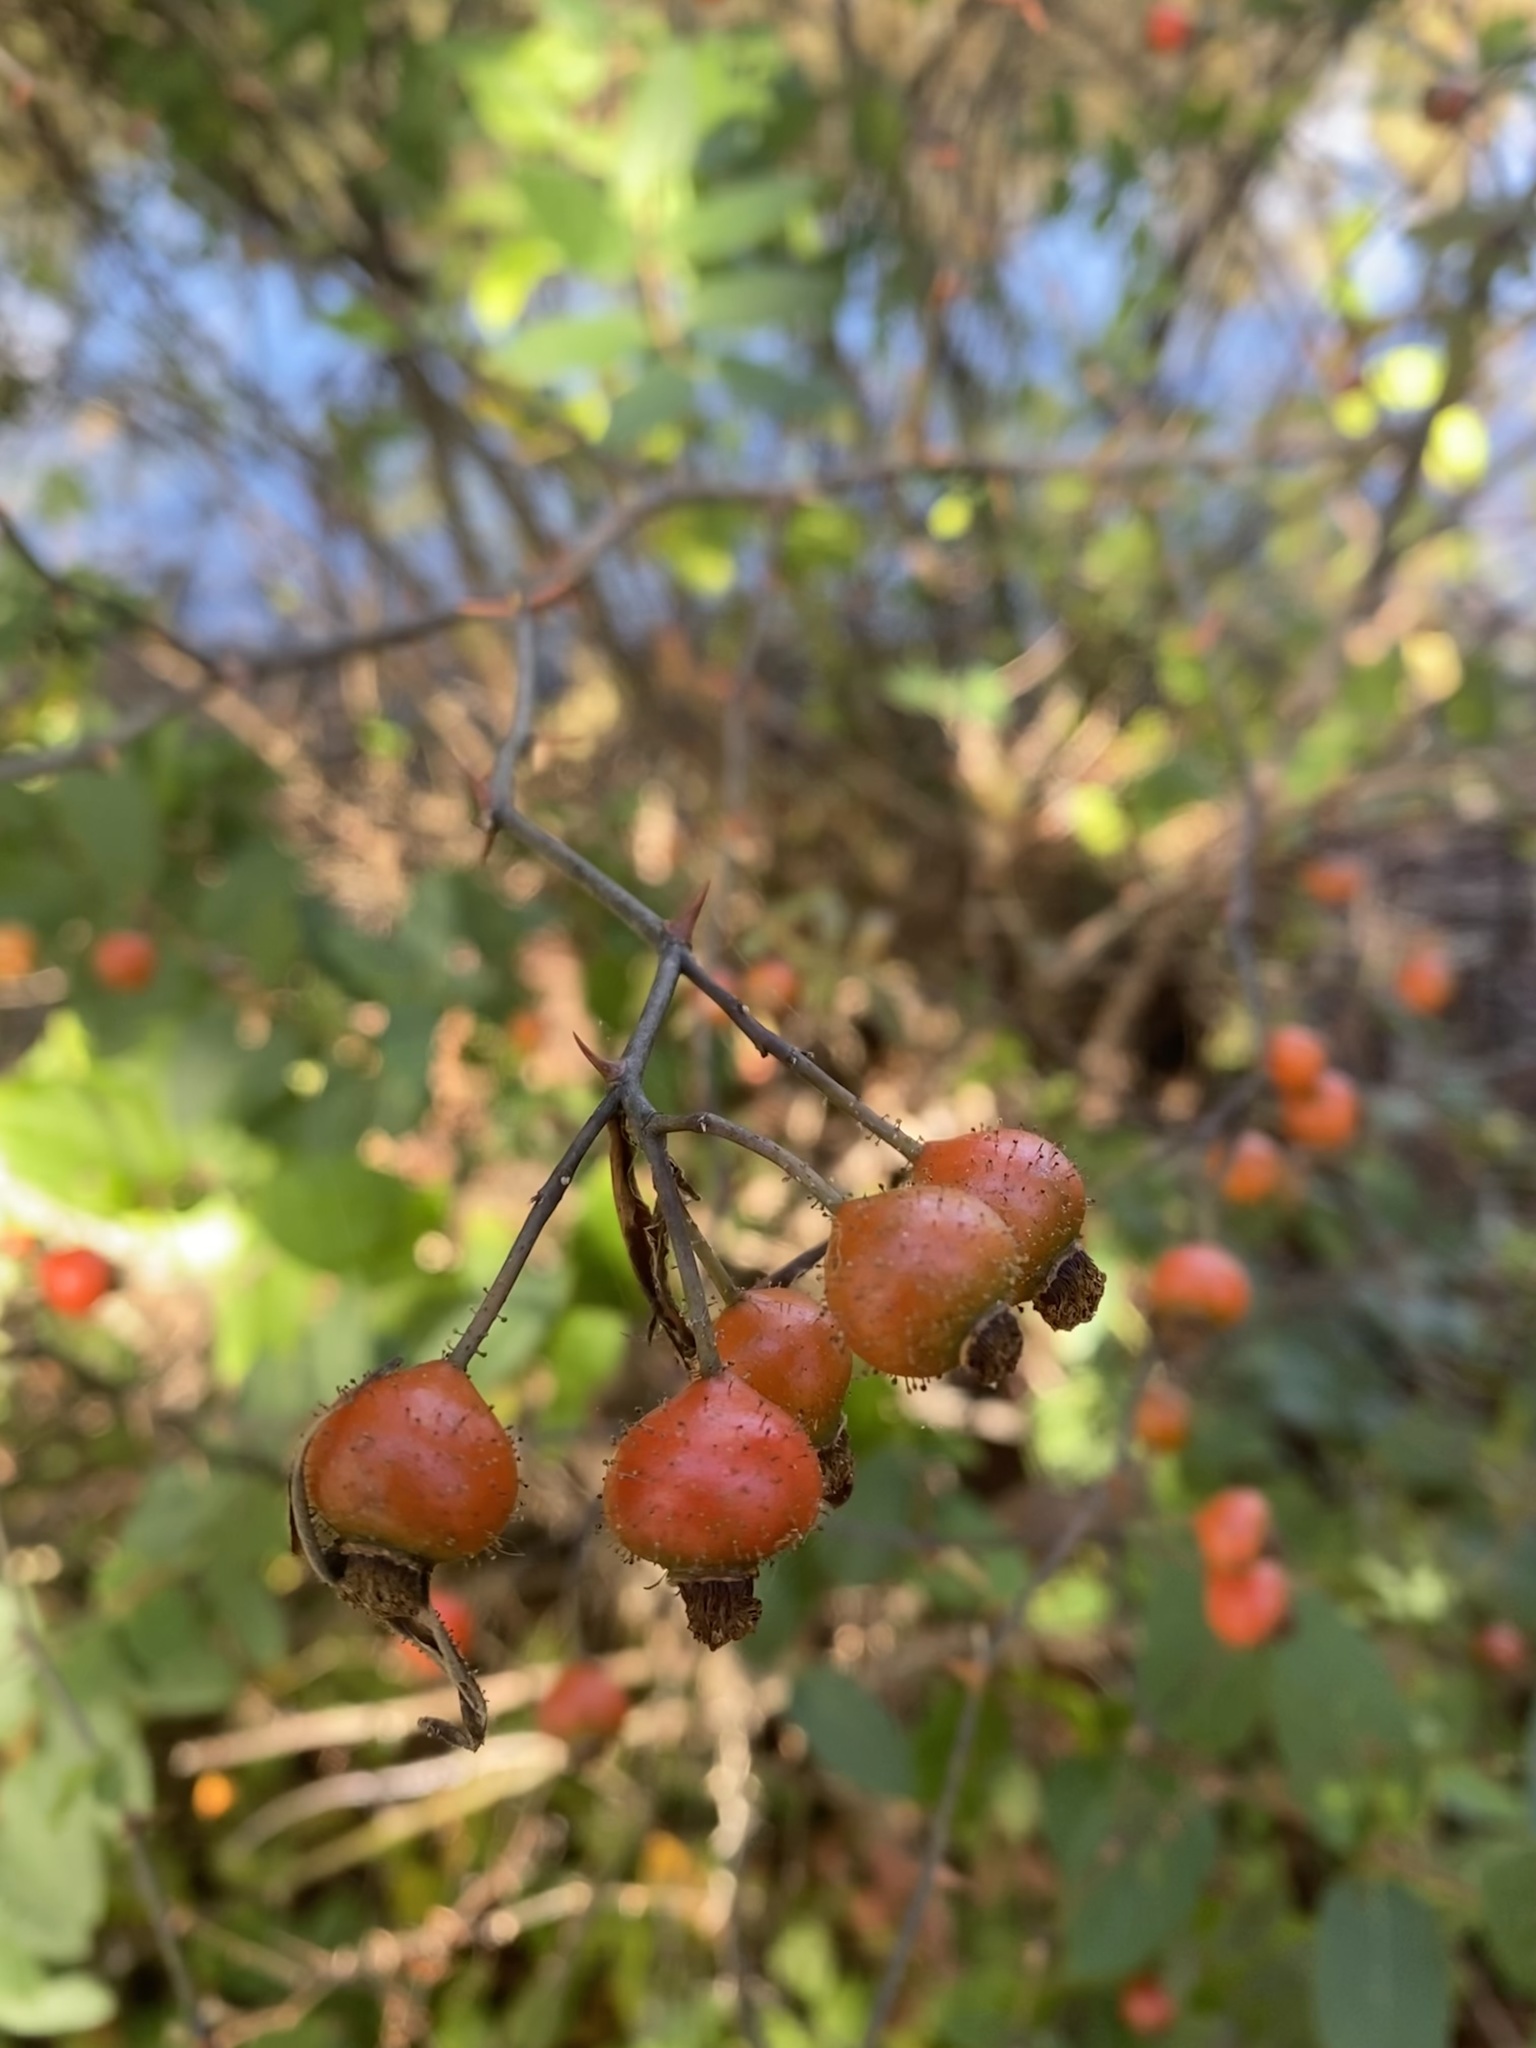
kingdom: Plantae
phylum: Tracheophyta
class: Magnoliopsida
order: Rosales
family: Rosaceae
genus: Rosa
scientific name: Rosa palustris
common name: Swamp rose
